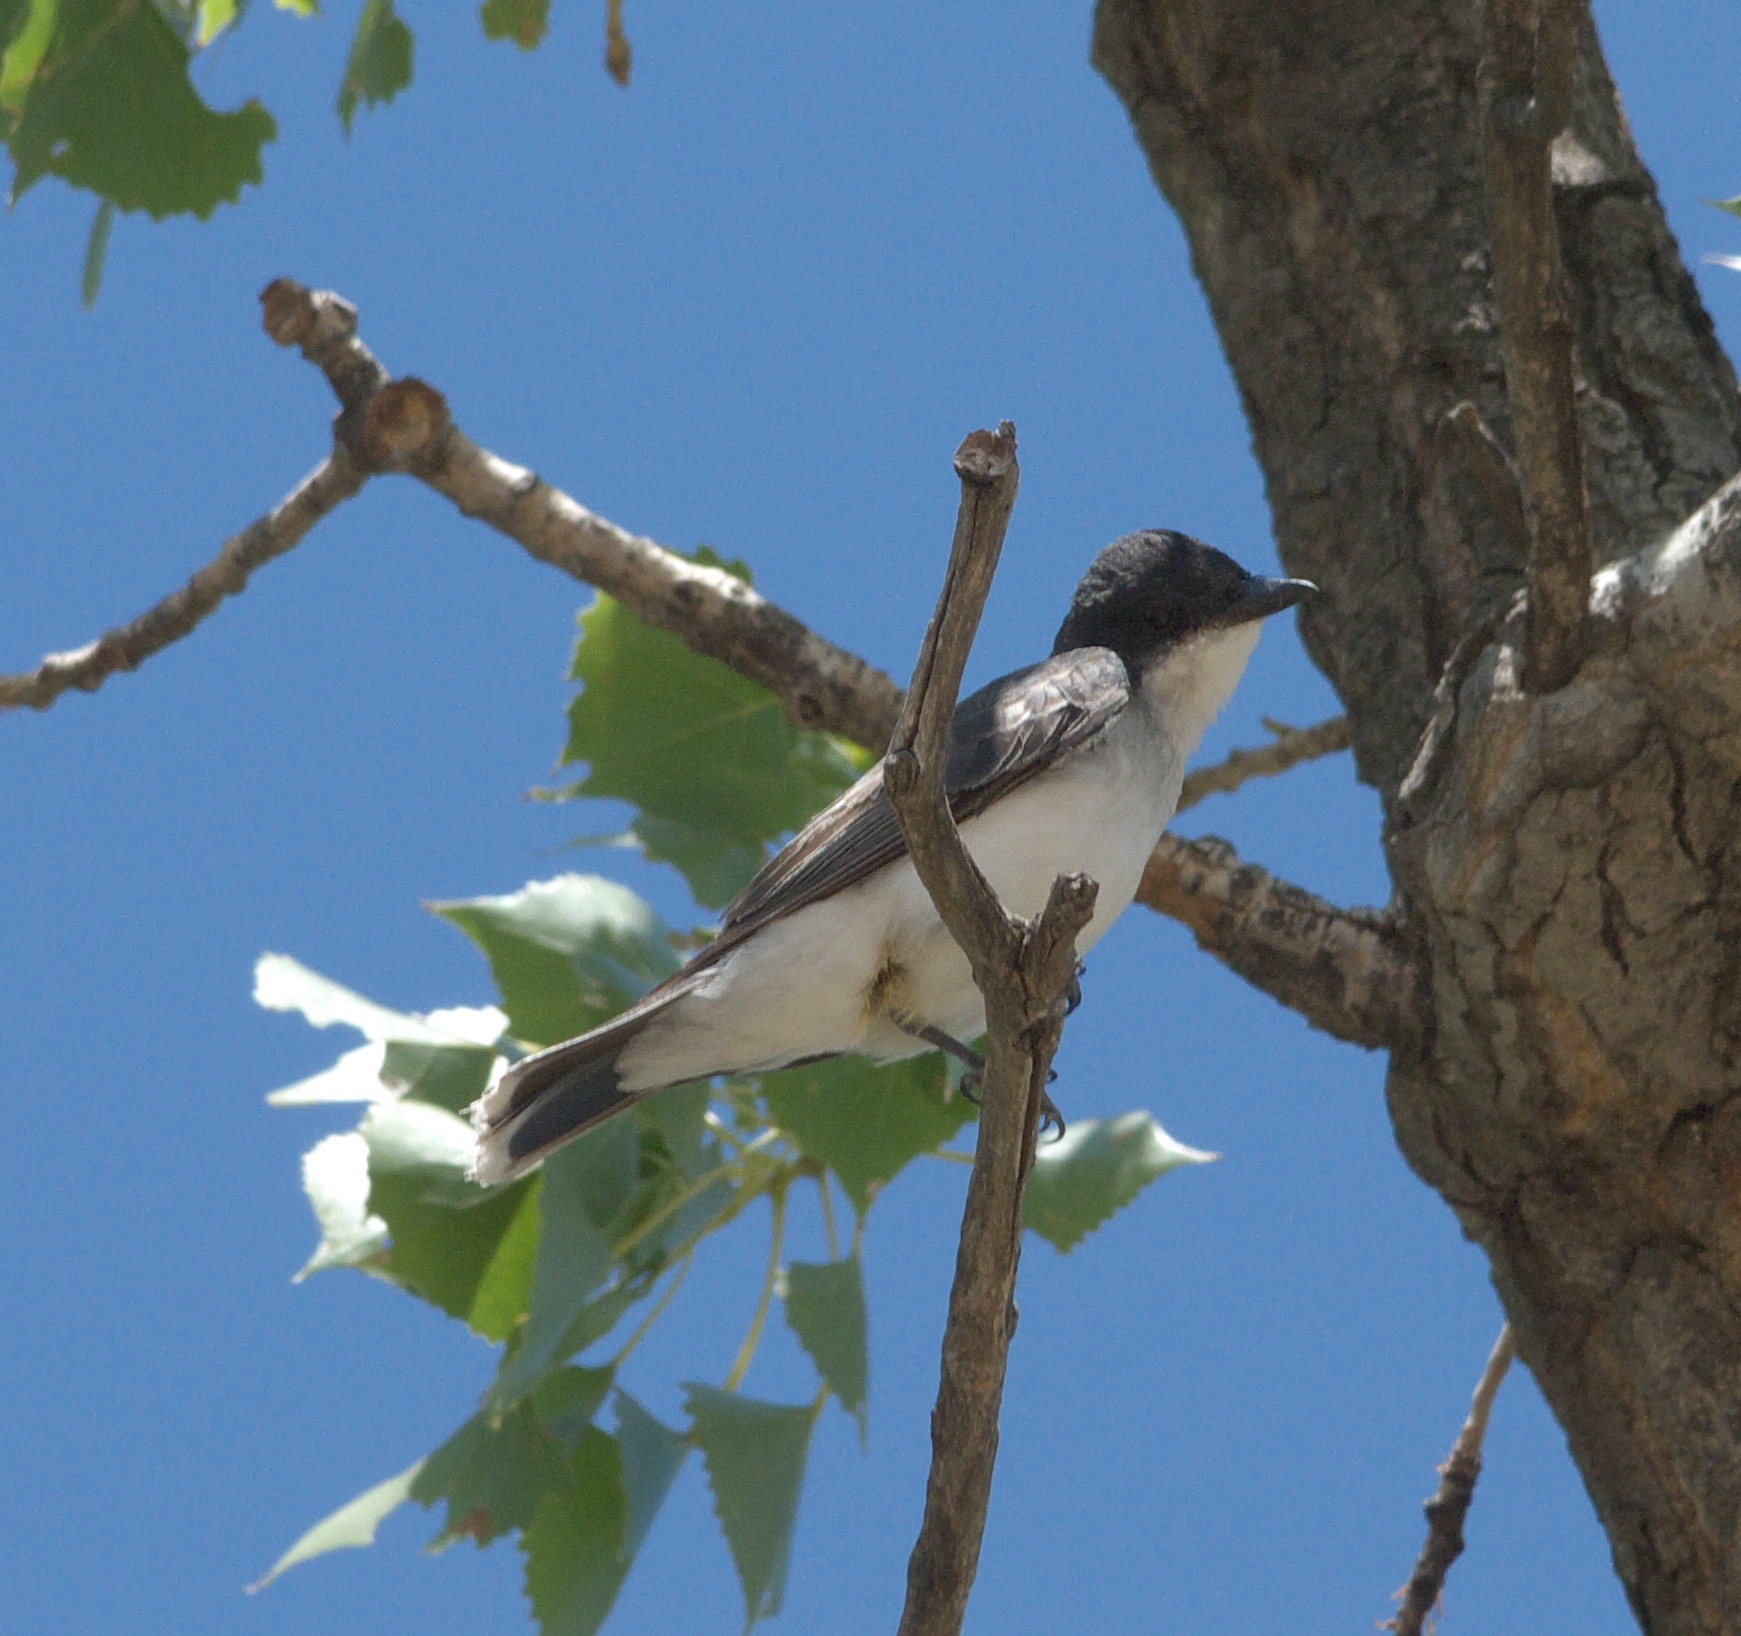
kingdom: Animalia
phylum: Chordata
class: Aves
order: Passeriformes
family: Tyrannidae
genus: Tyrannus
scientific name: Tyrannus tyrannus
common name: Eastern kingbird
